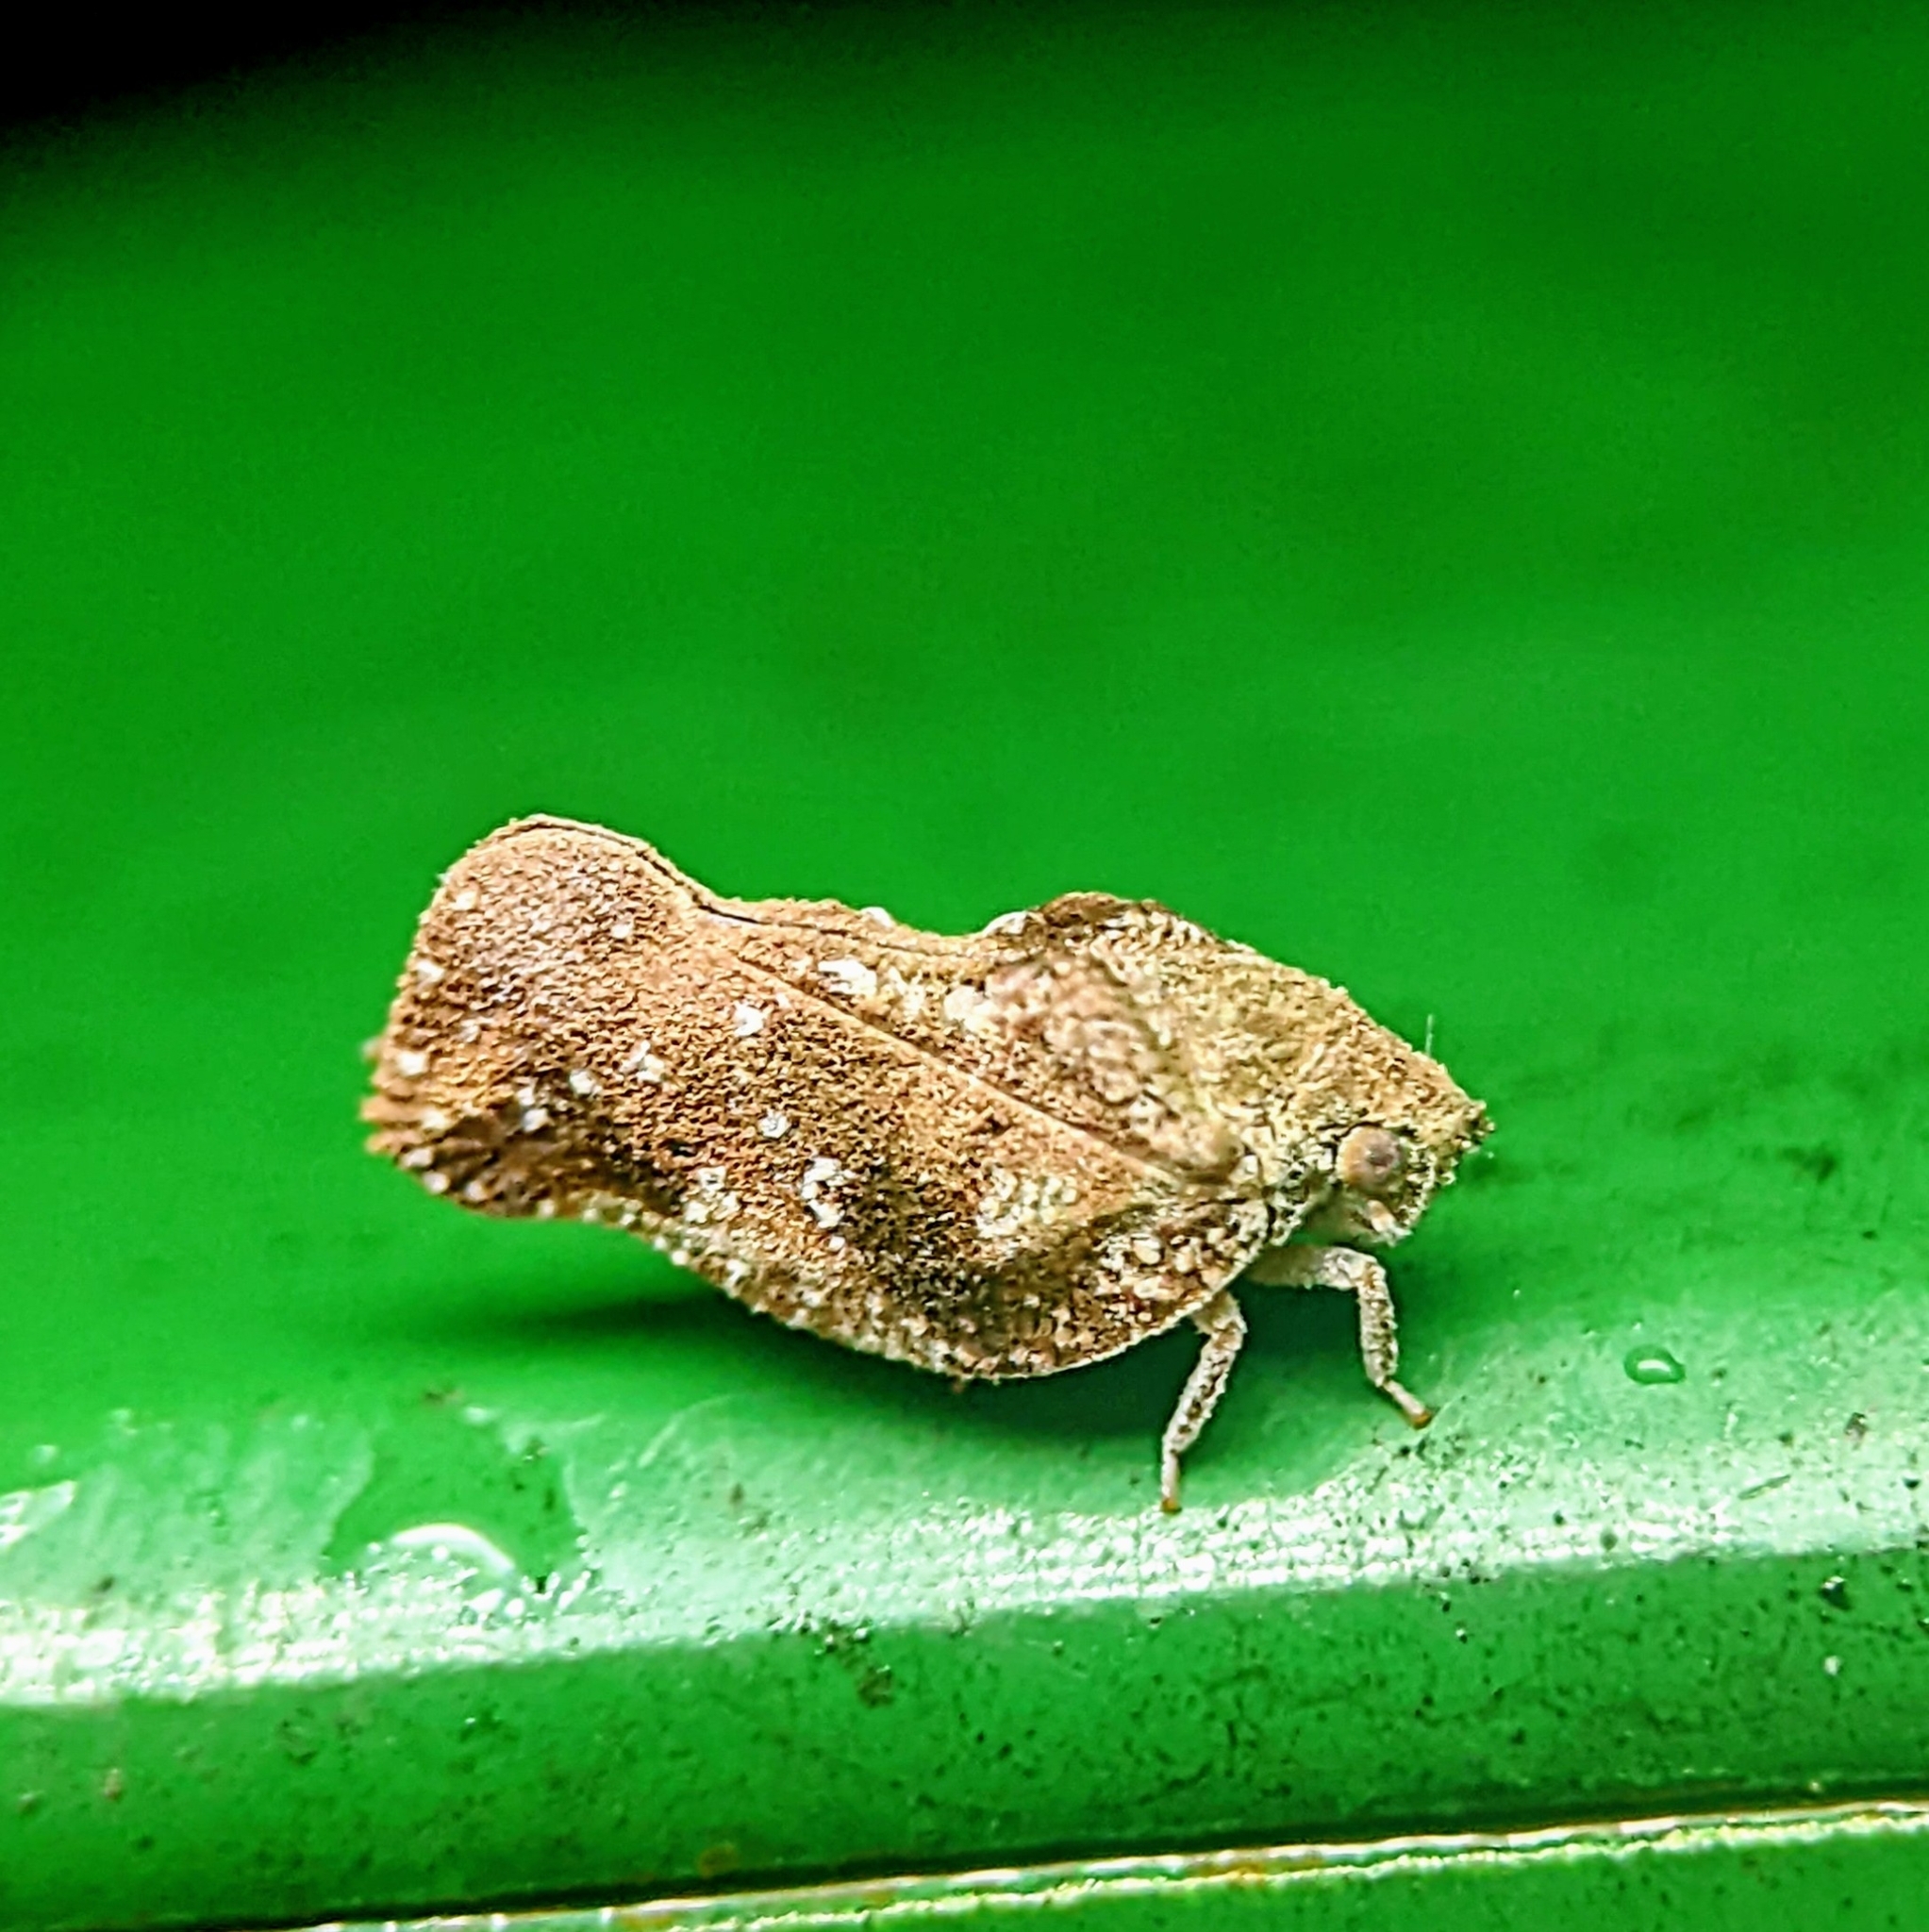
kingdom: Animalia
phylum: Arthropoda
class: Insecta
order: Hemiptera
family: Flatidae
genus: Seliza
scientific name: Seliza vidua
